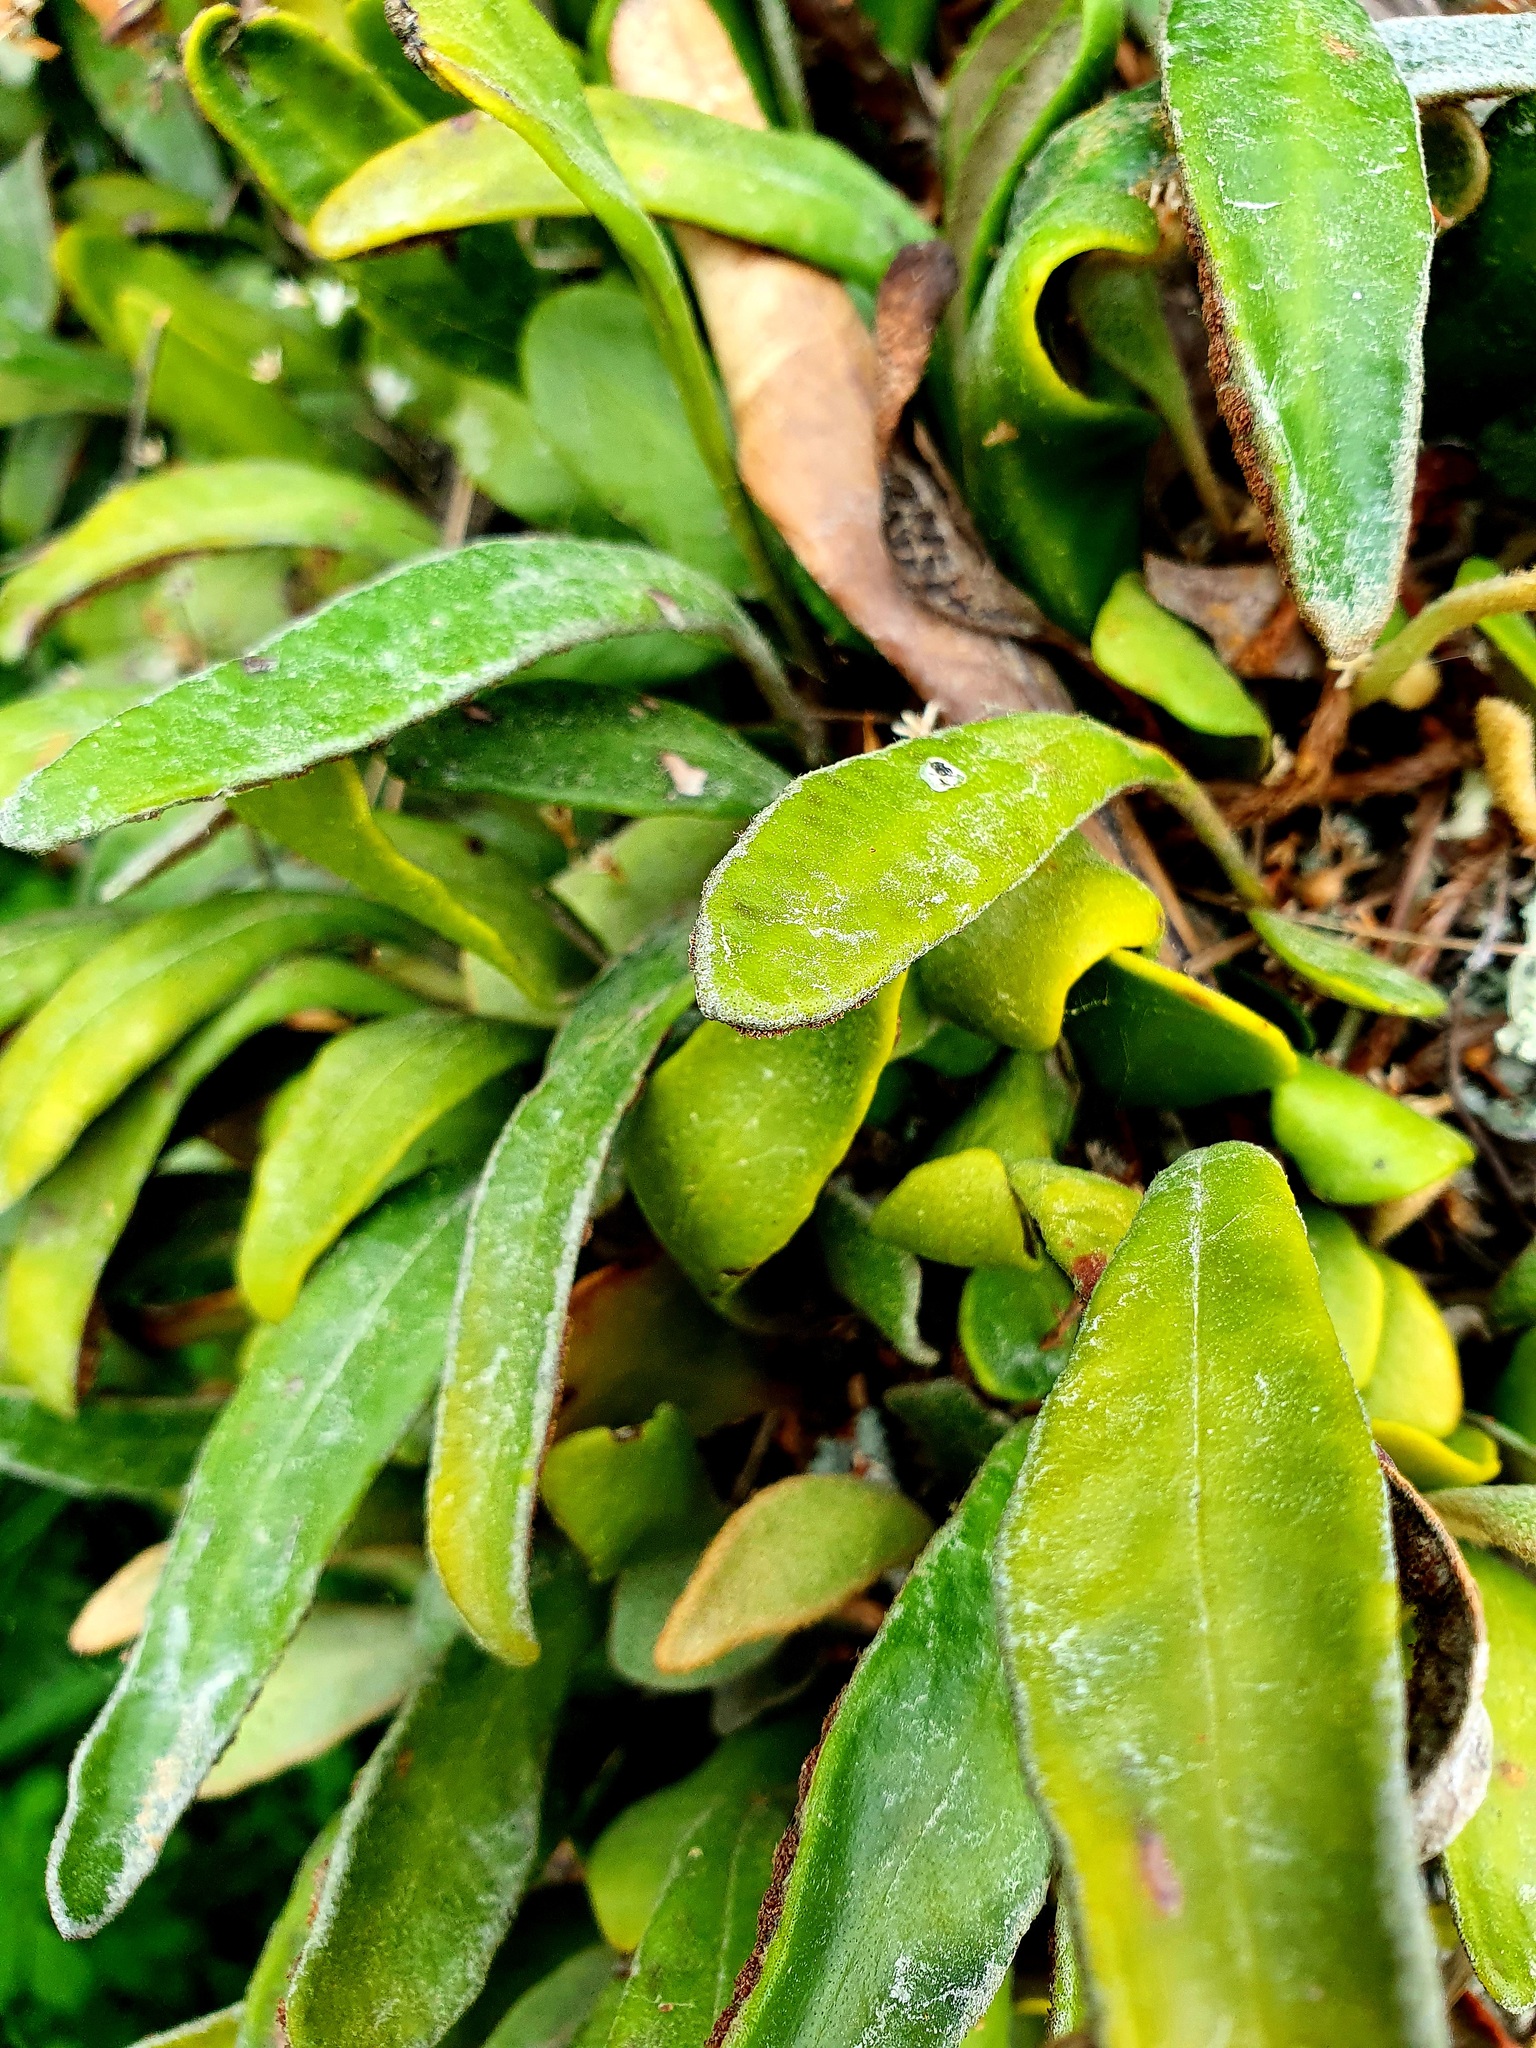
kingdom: Plantae
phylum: Tracheophyta
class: Polypodiopsida
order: Polypodiales
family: Polypodiaceae
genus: Pyrrosia
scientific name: Pyrrosia eleagnifolia
